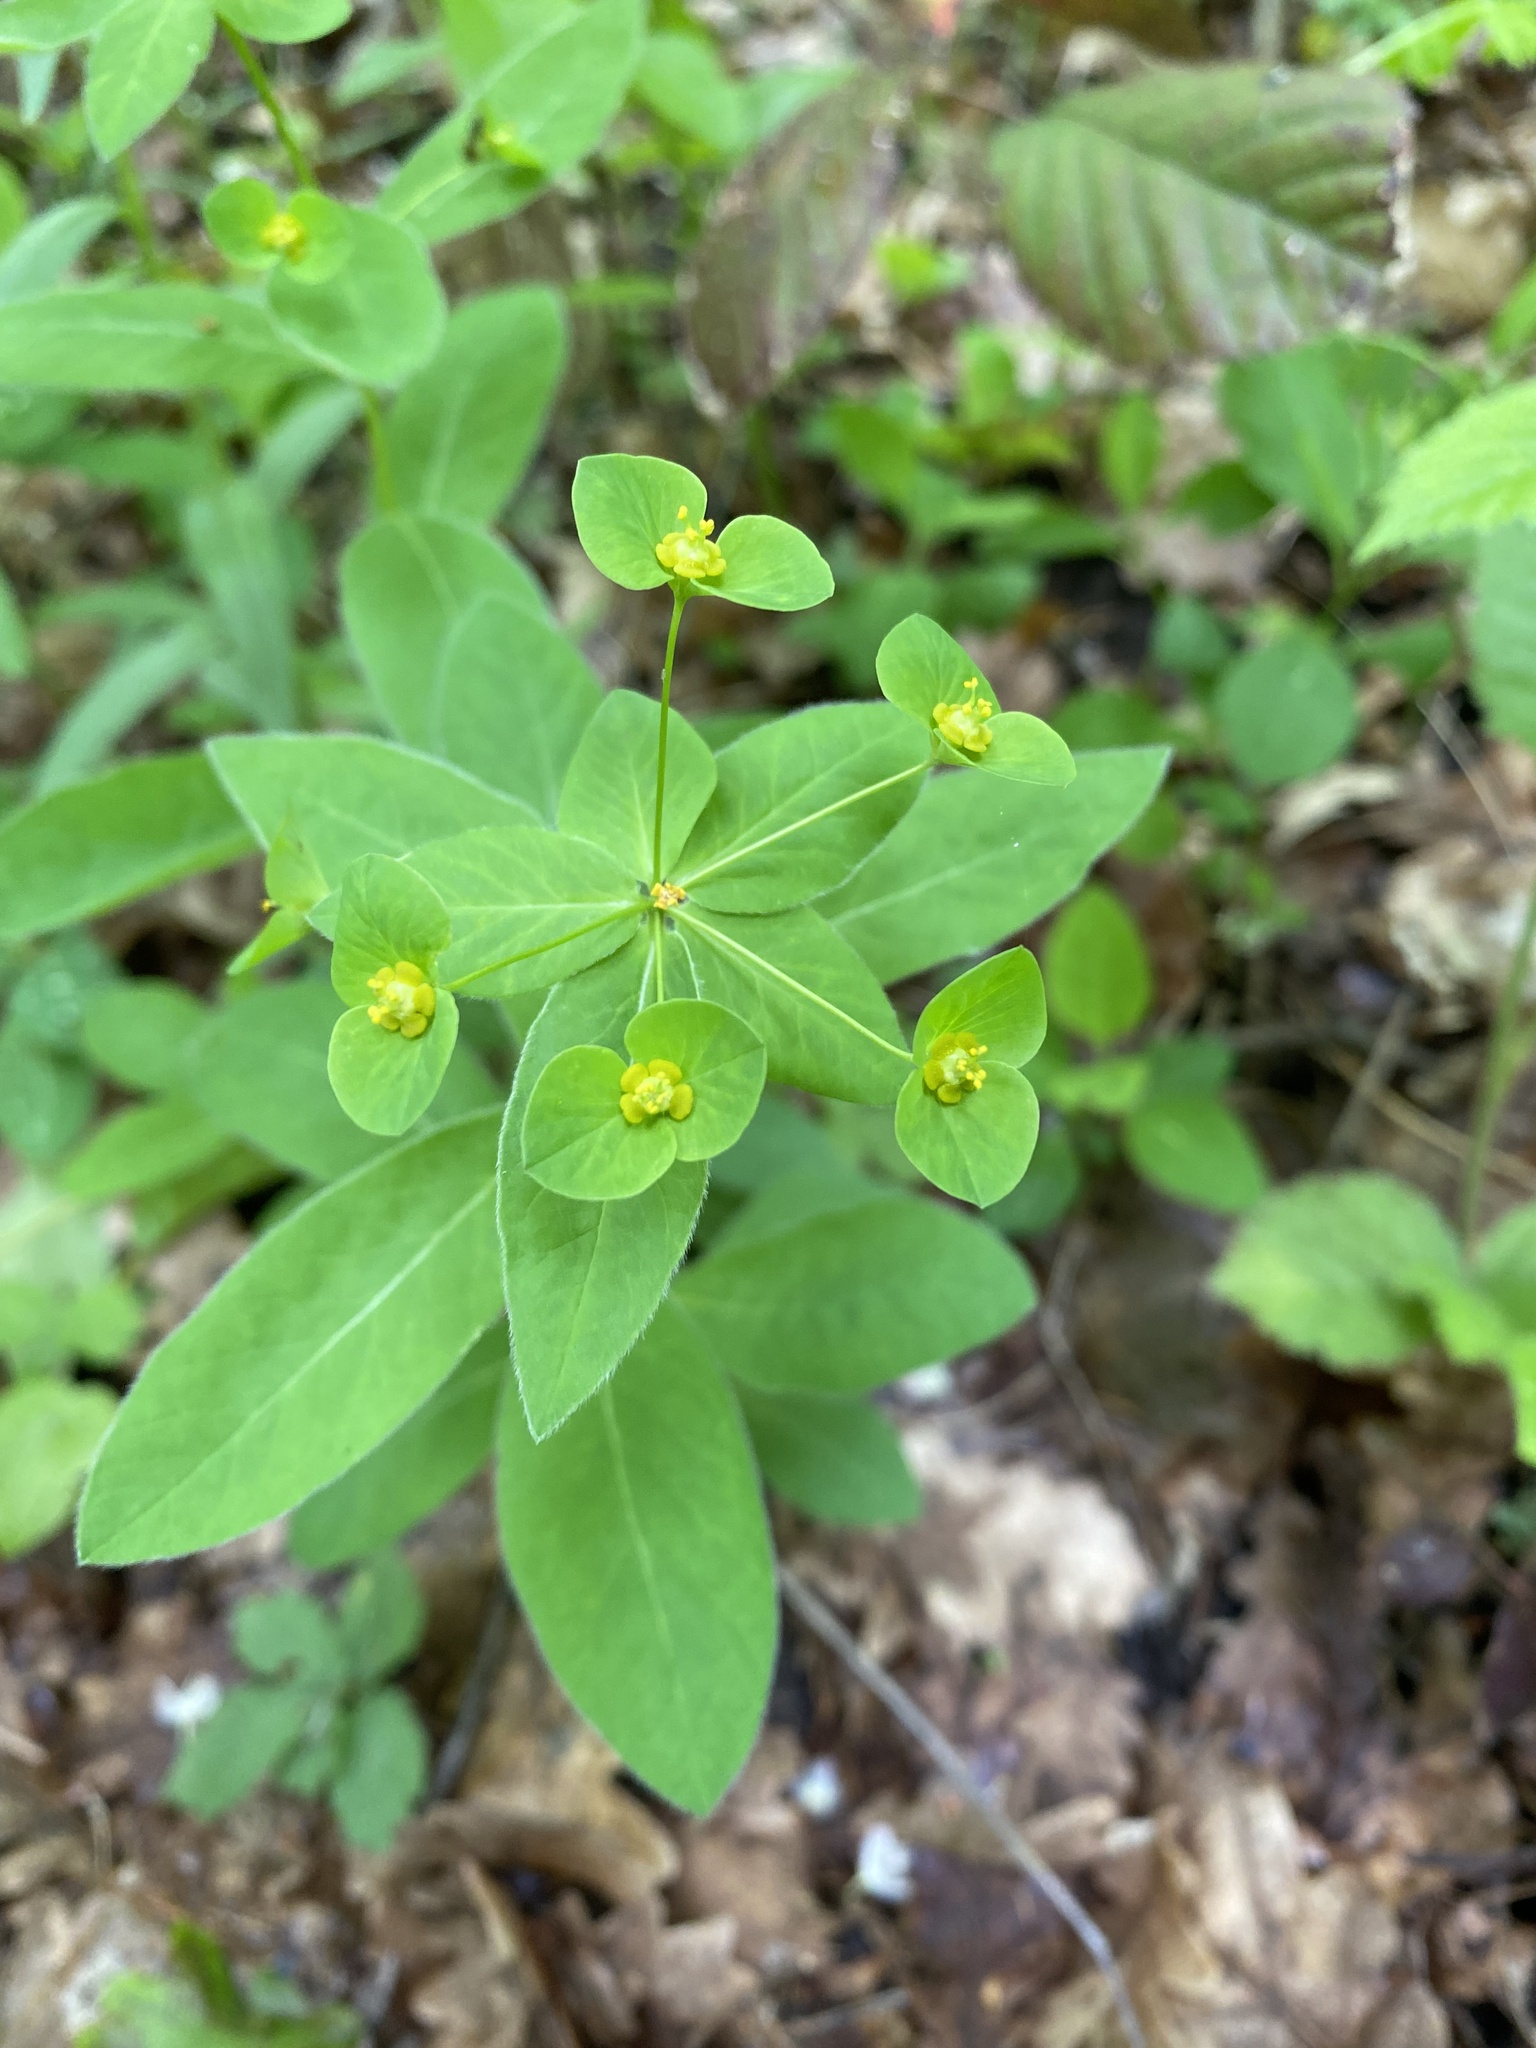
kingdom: Plantae
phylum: Tracheophyta
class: Magnoliopsida
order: Malpighiales
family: Euphorbiaceae
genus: Euphorbia
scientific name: Euphorbia squamosa
